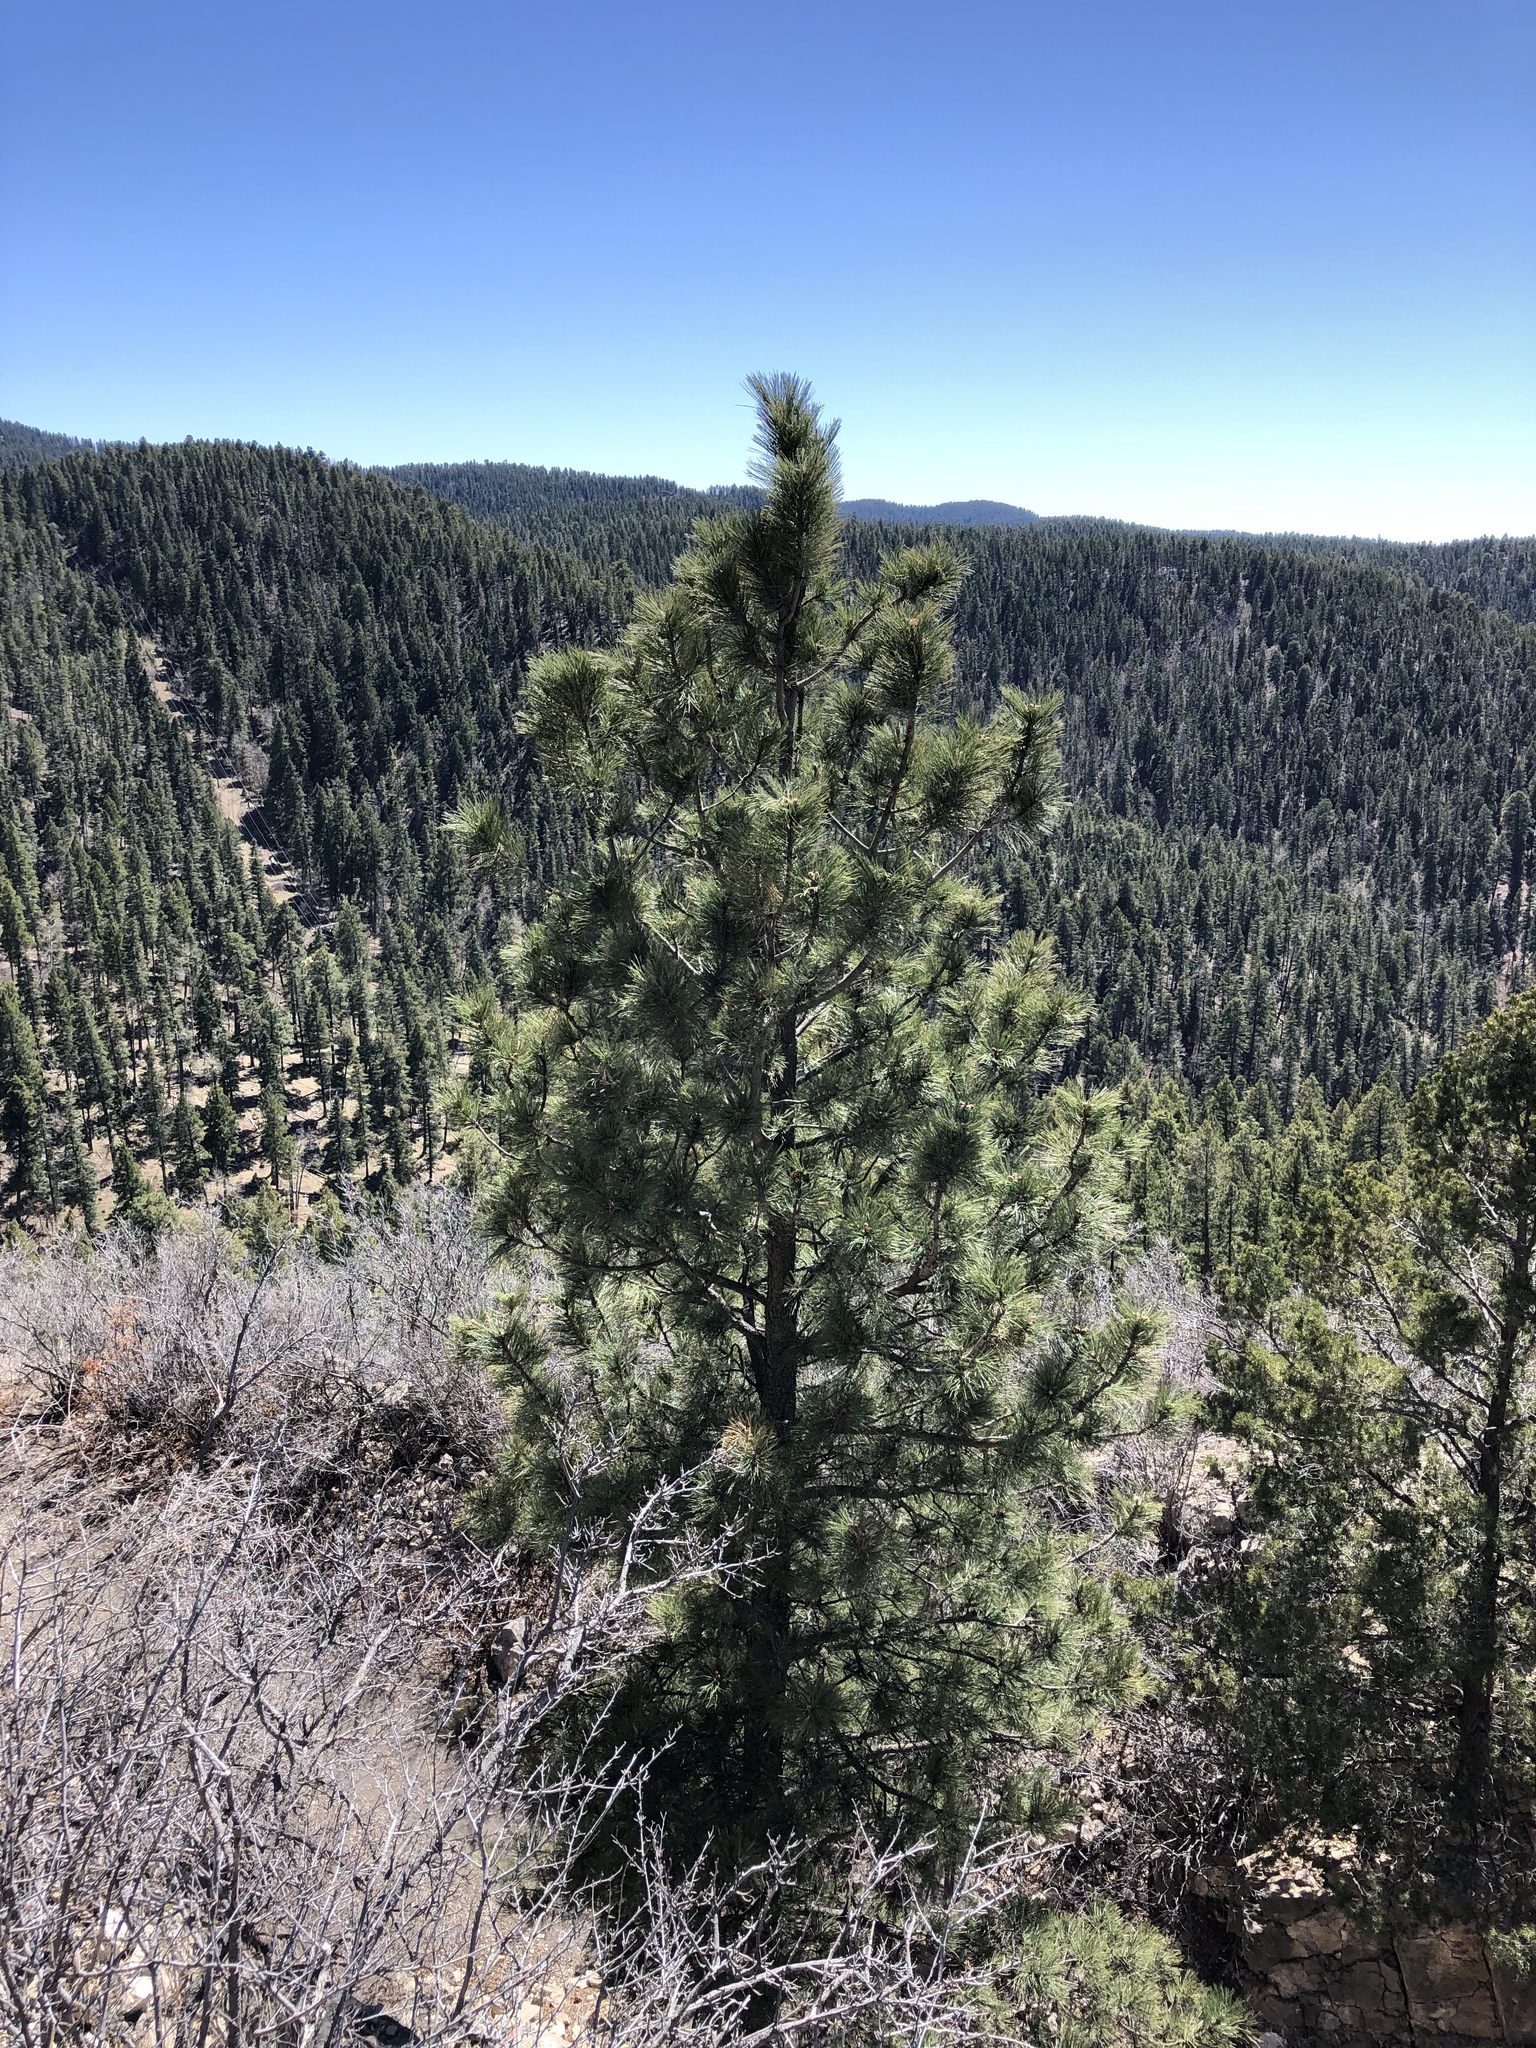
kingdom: Plantae
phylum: Tracheophyta
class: Pinopsida
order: Pinales
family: Pinaceae
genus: Pinus
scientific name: Pinus ponderosa
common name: Western yellow-pine
